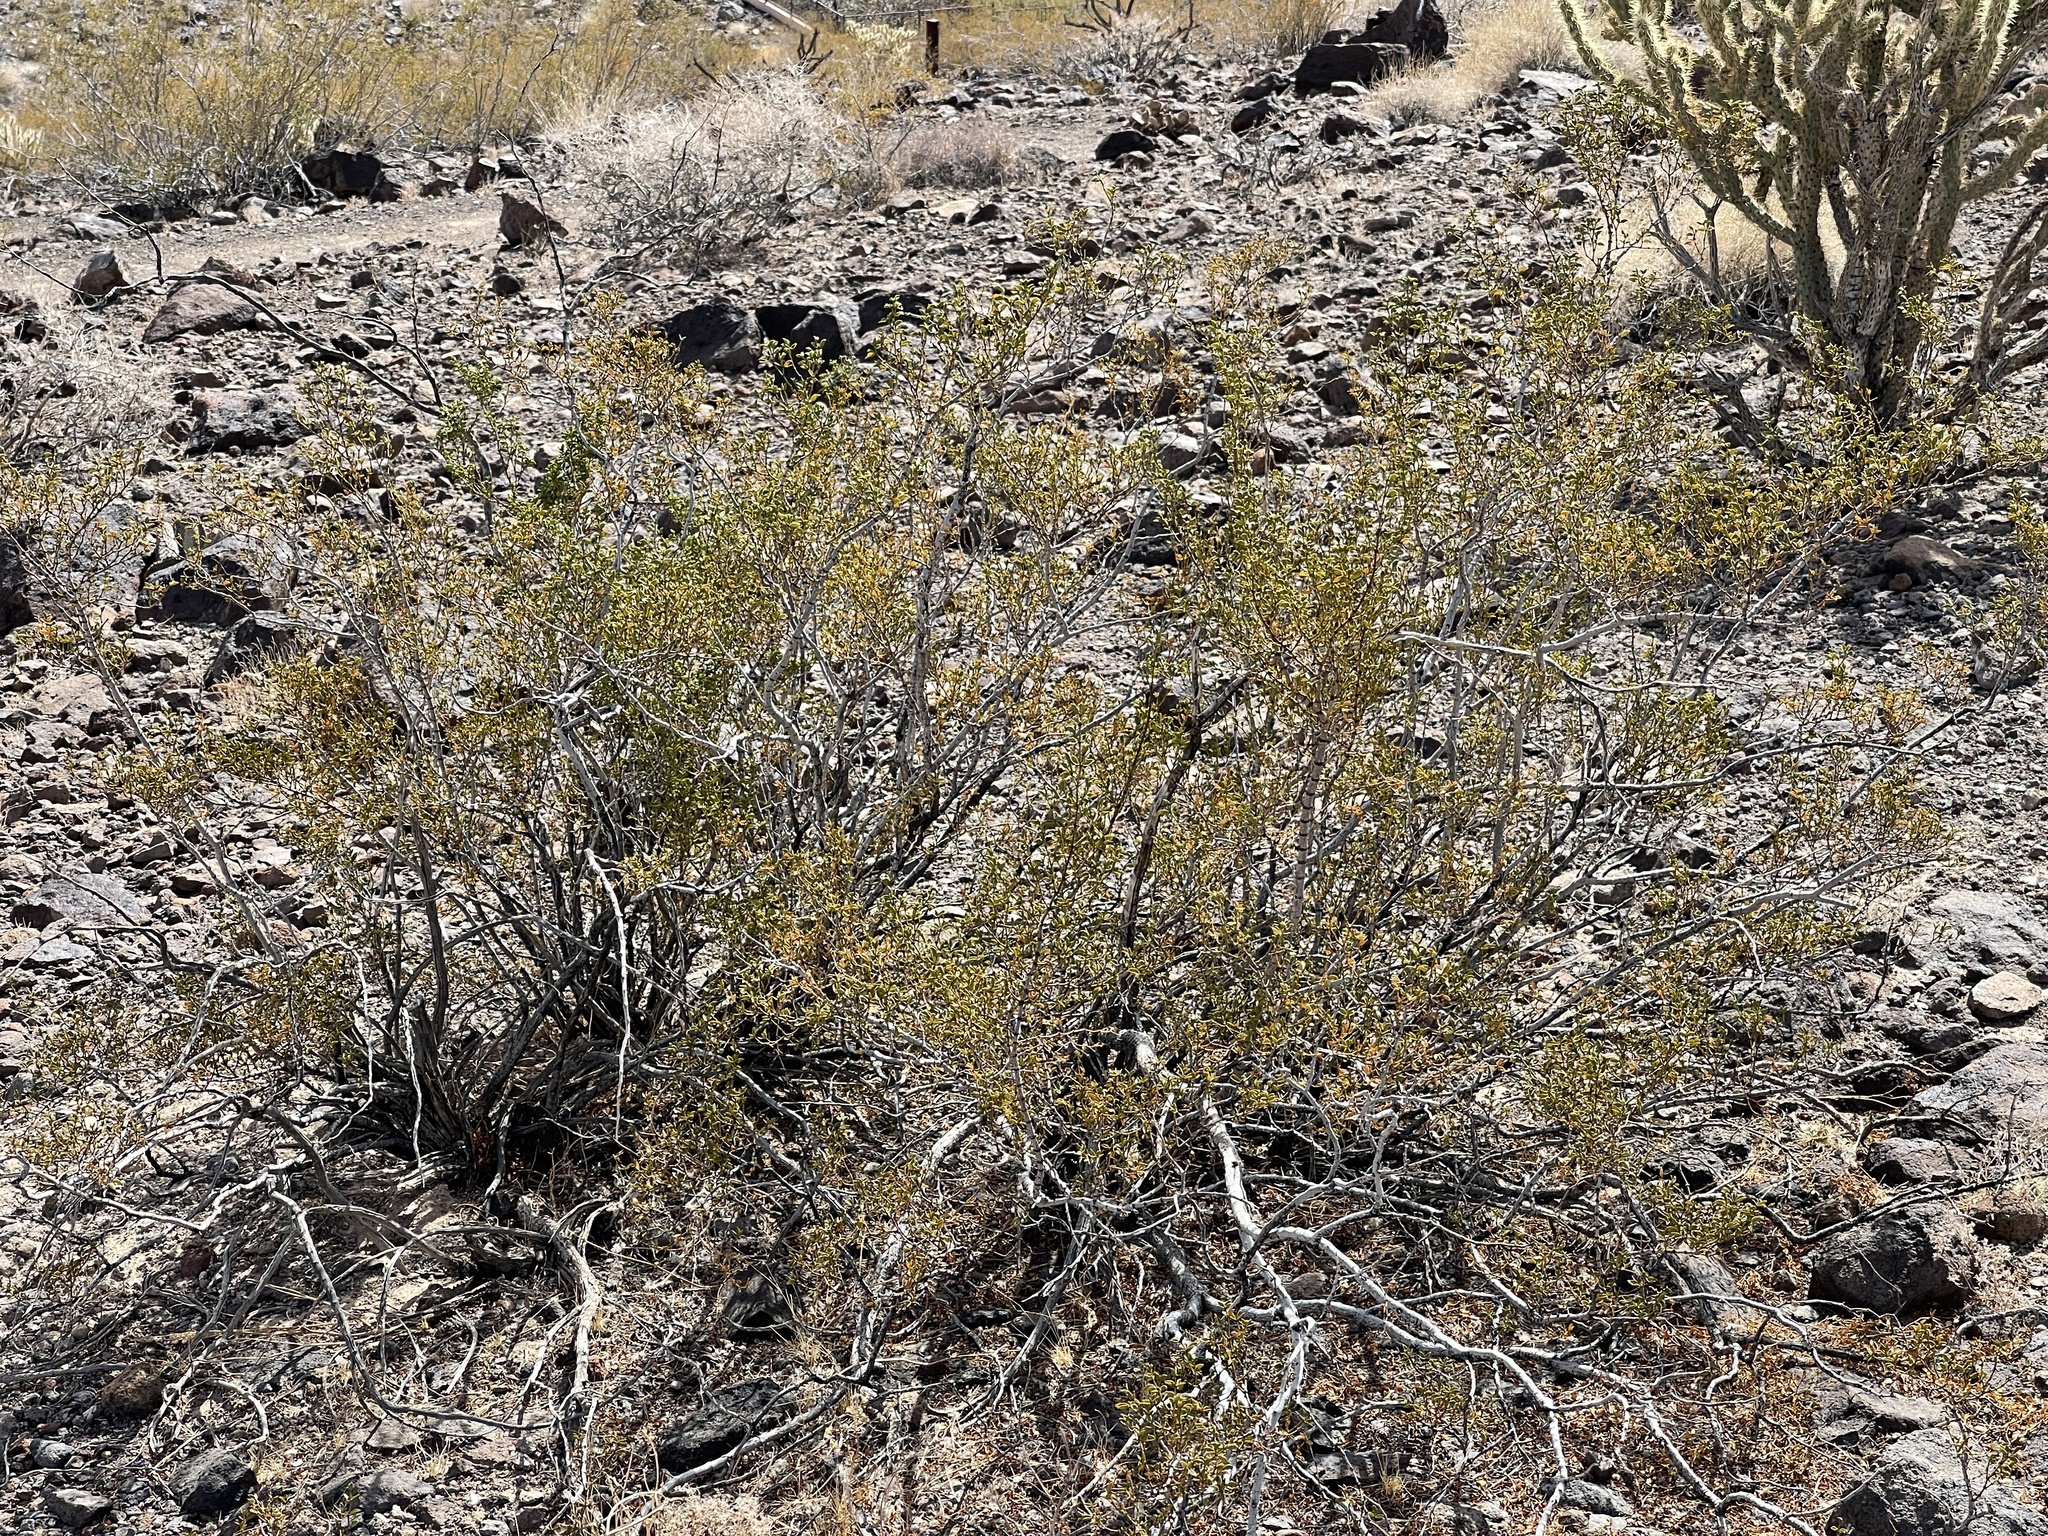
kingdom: Plantae
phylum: Tracheophyta
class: Magnoliopsida
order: Zygophyllales
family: Zygophyllaceae
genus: Larrea
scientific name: Larrea tridentata
